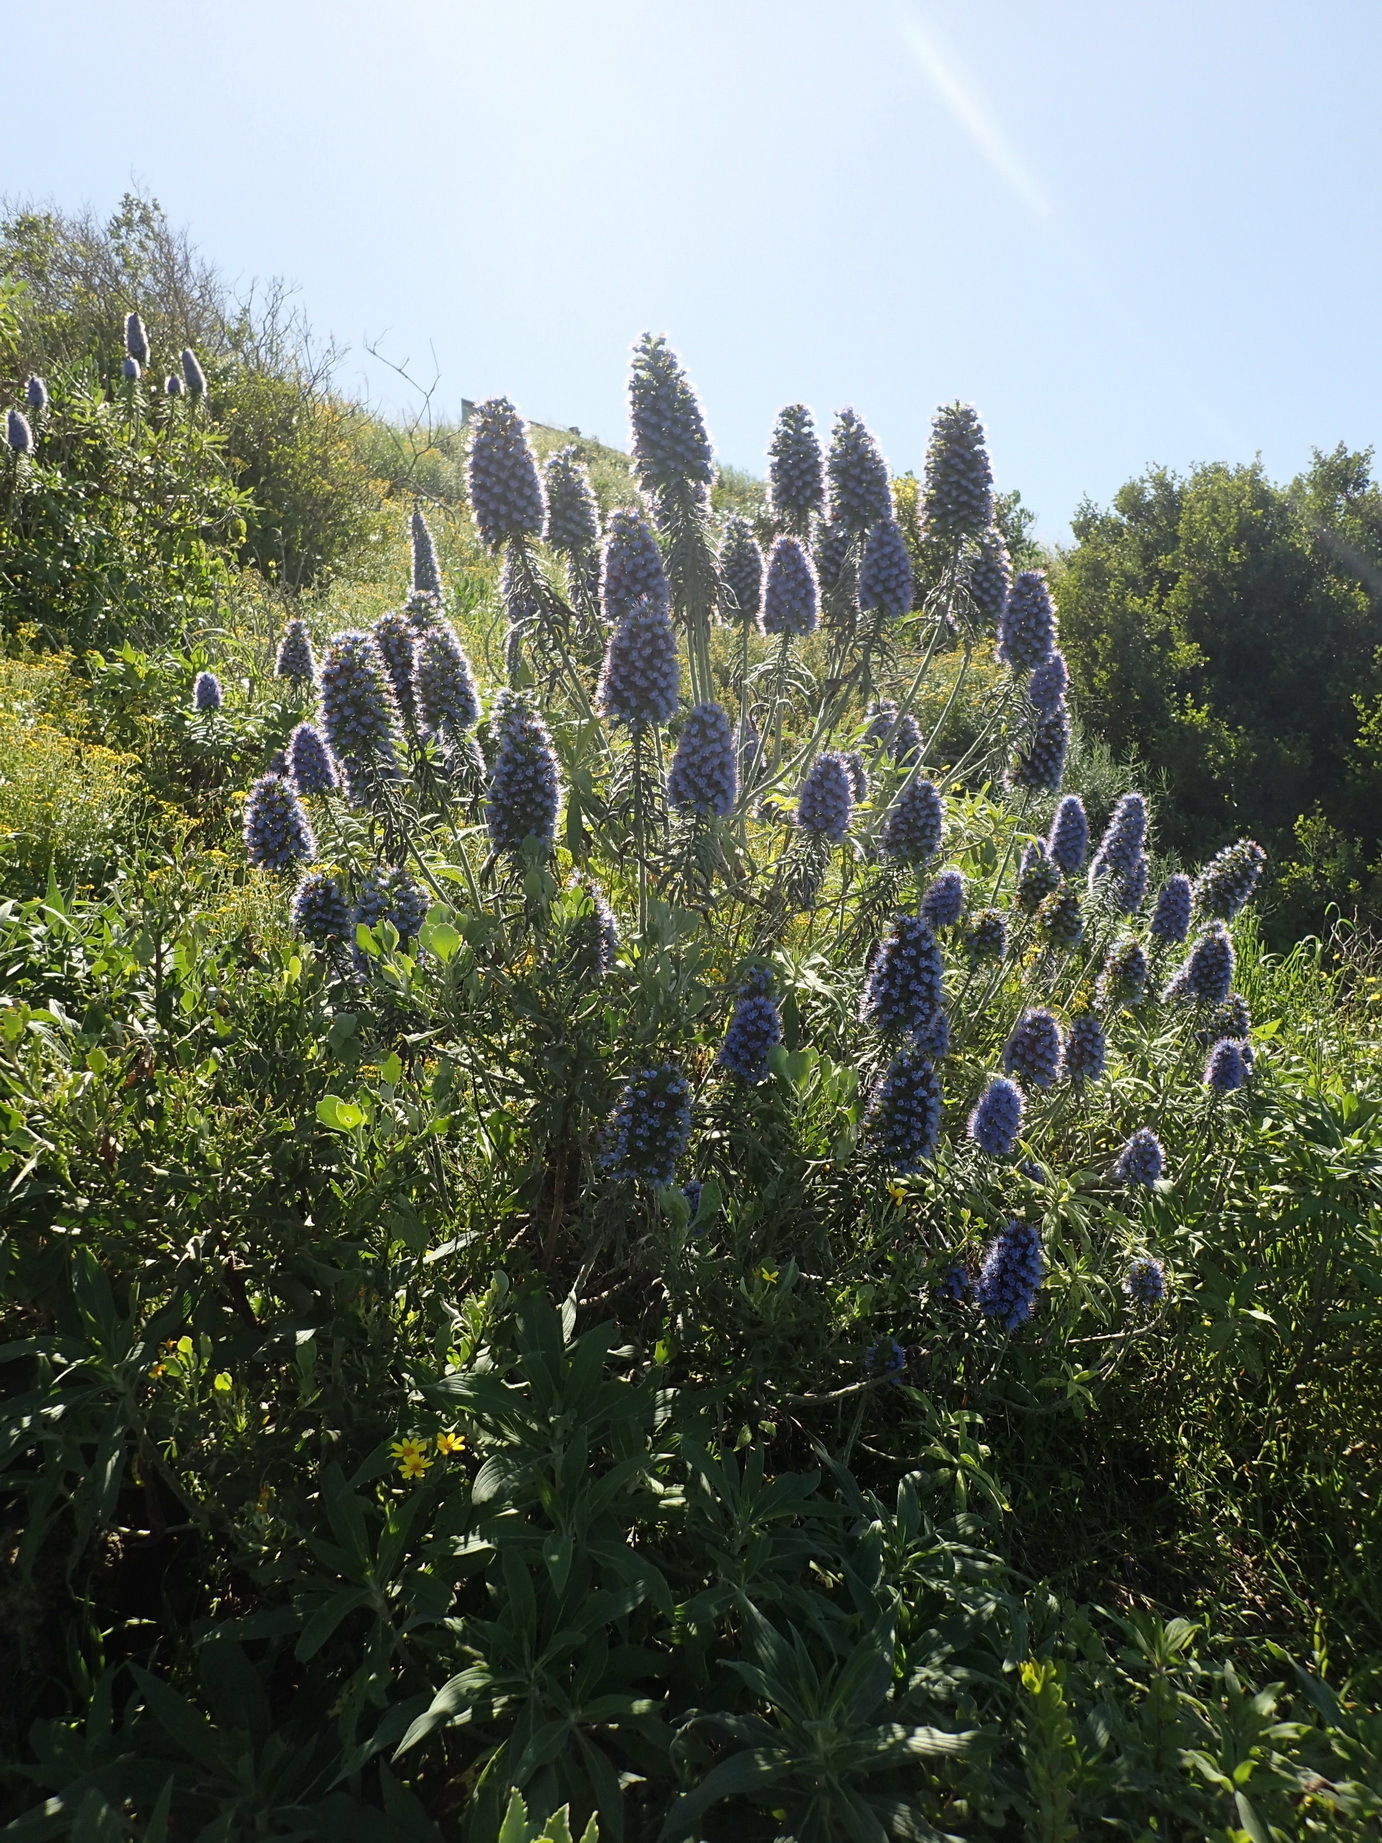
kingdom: Plantae
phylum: Tracheophyta
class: Magnoliopsida
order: Boraginales
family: Boraginaceae
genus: Echium
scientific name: Echium candicans
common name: Pride of madeira
